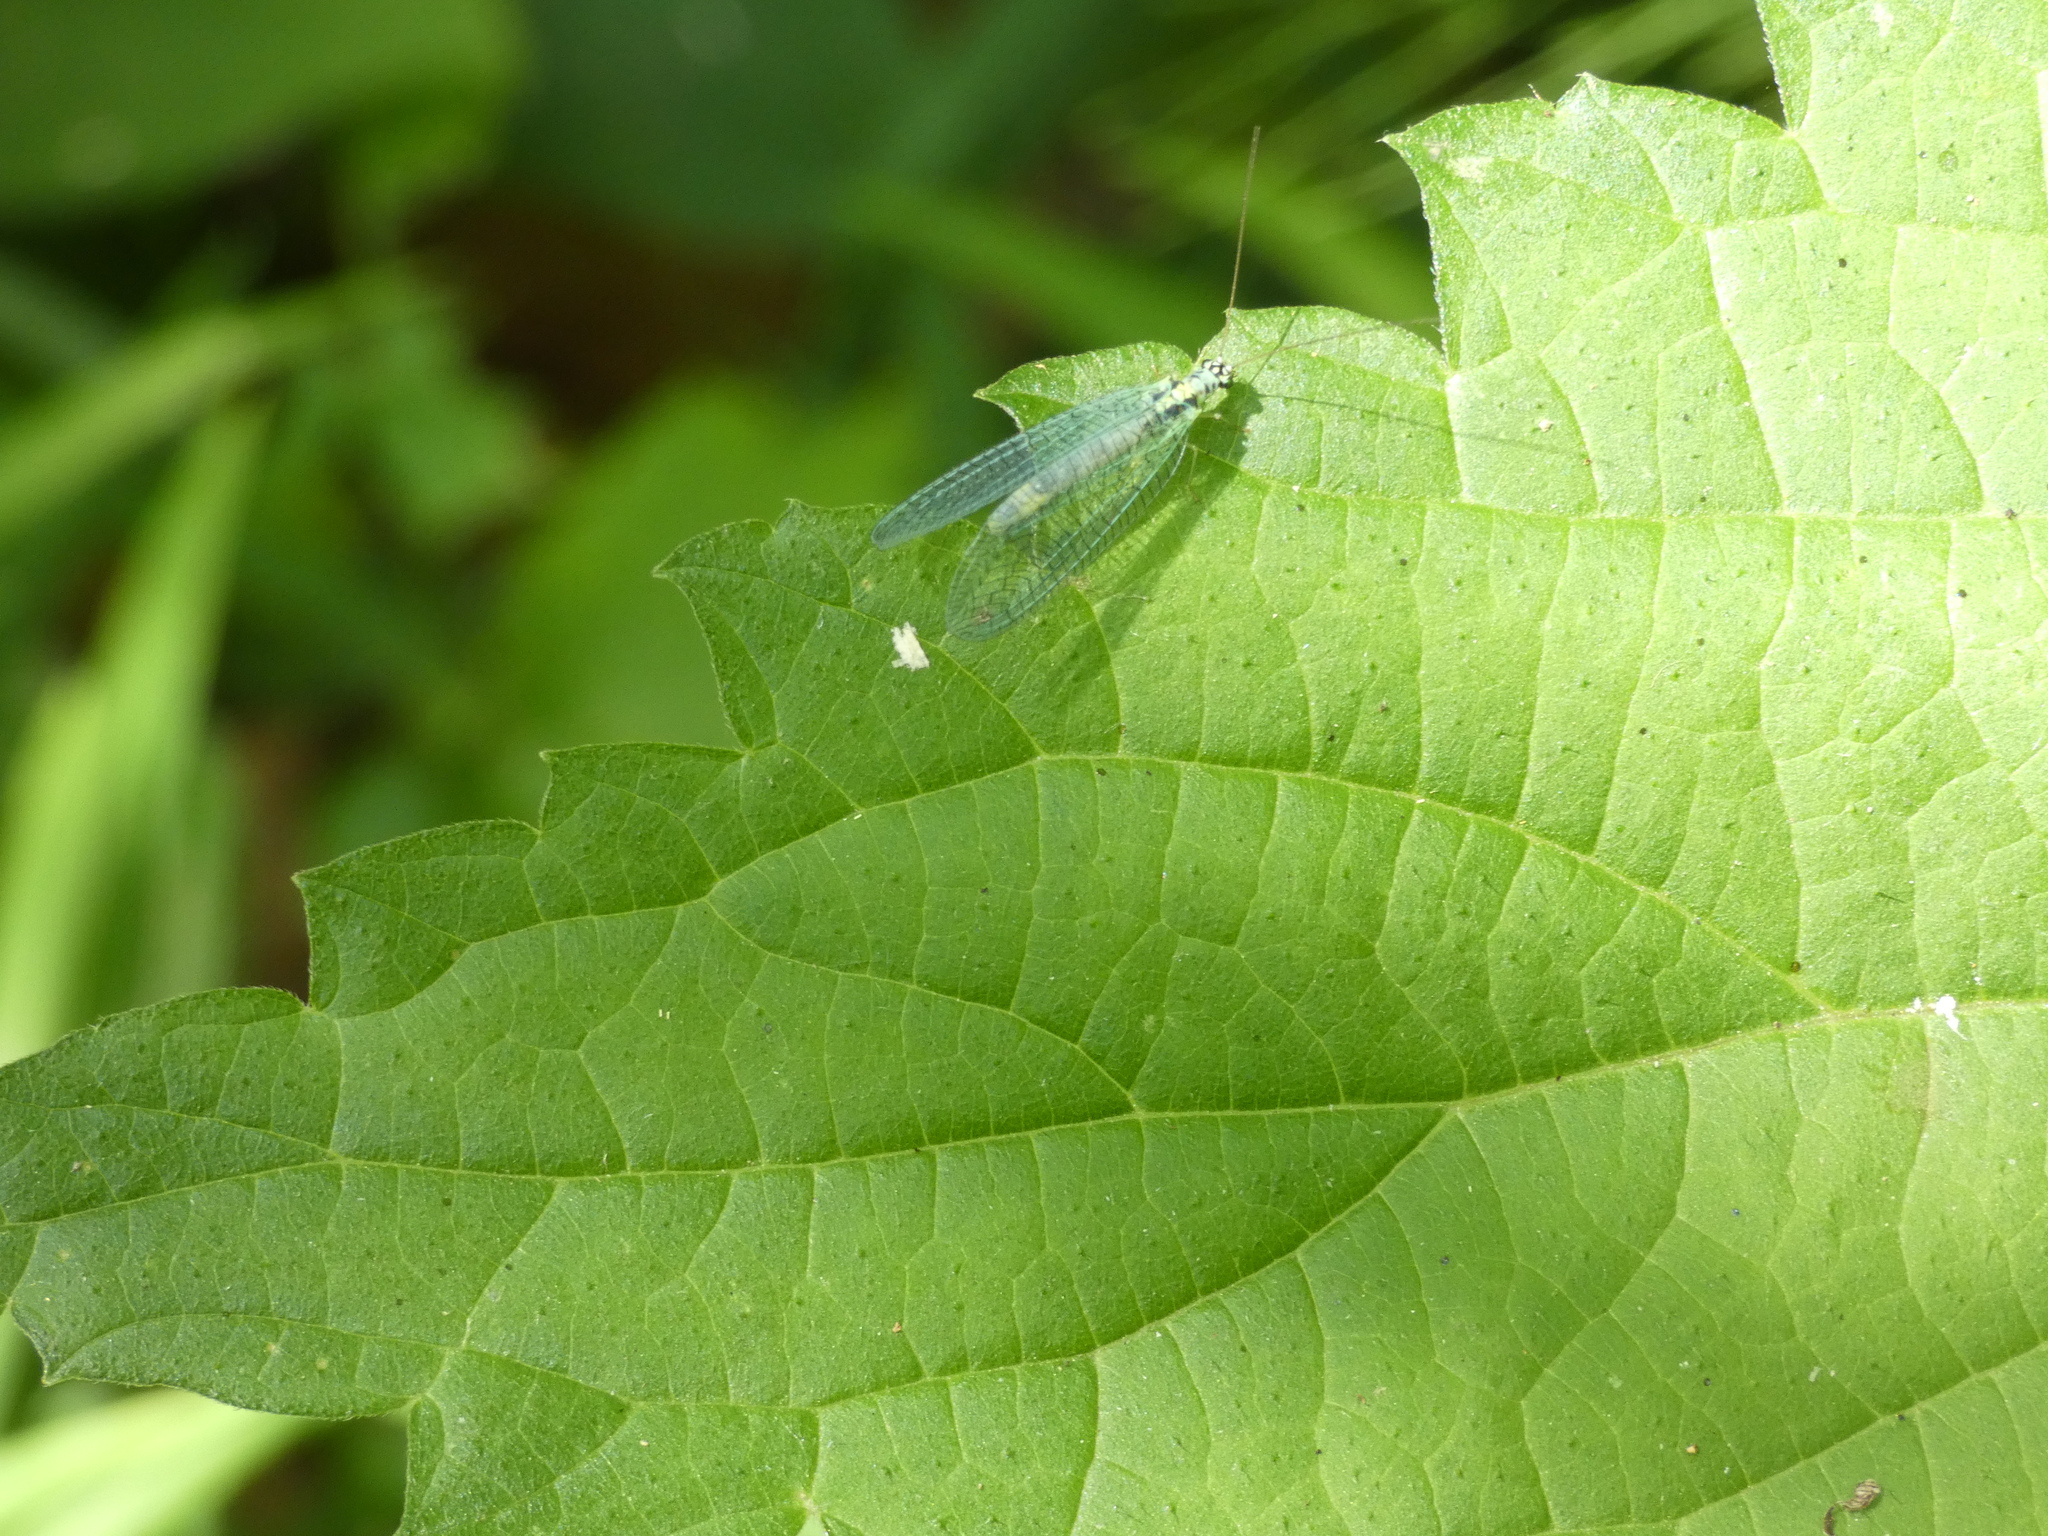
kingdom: Animalia
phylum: Arthropoda
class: Insecta
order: Neuroptera
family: Chrysopidae
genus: Chrysopa
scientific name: Chrysopa perla
